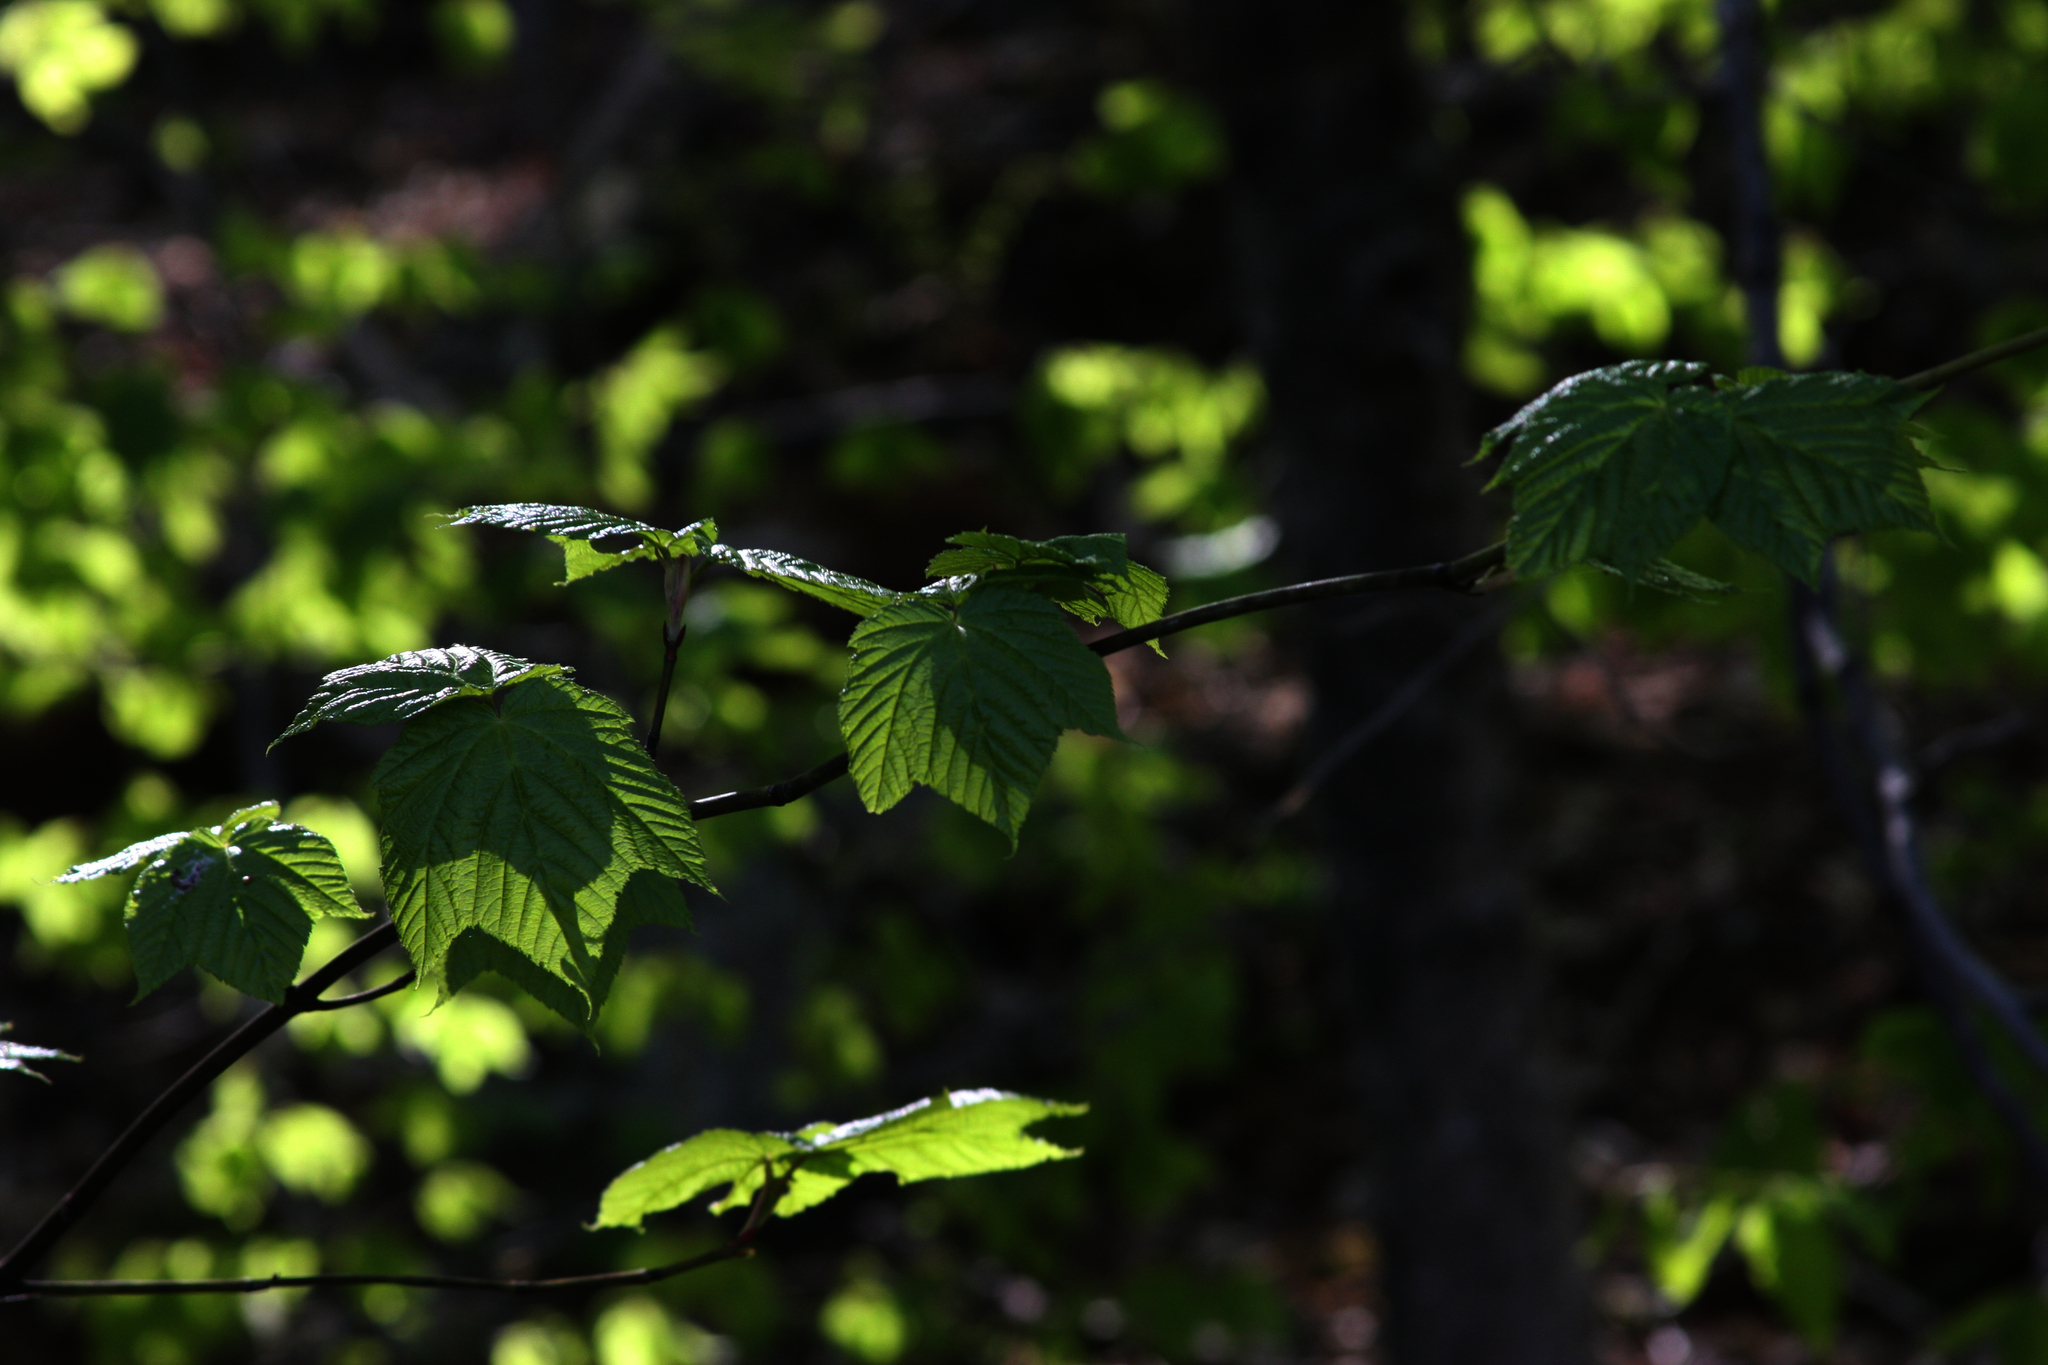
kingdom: Plantae
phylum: Tracheophyta
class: Magnoliopsida
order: Sapindales
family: Sapindaceae
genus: Acer
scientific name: Acer pensylvanicum
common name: Moosewood
